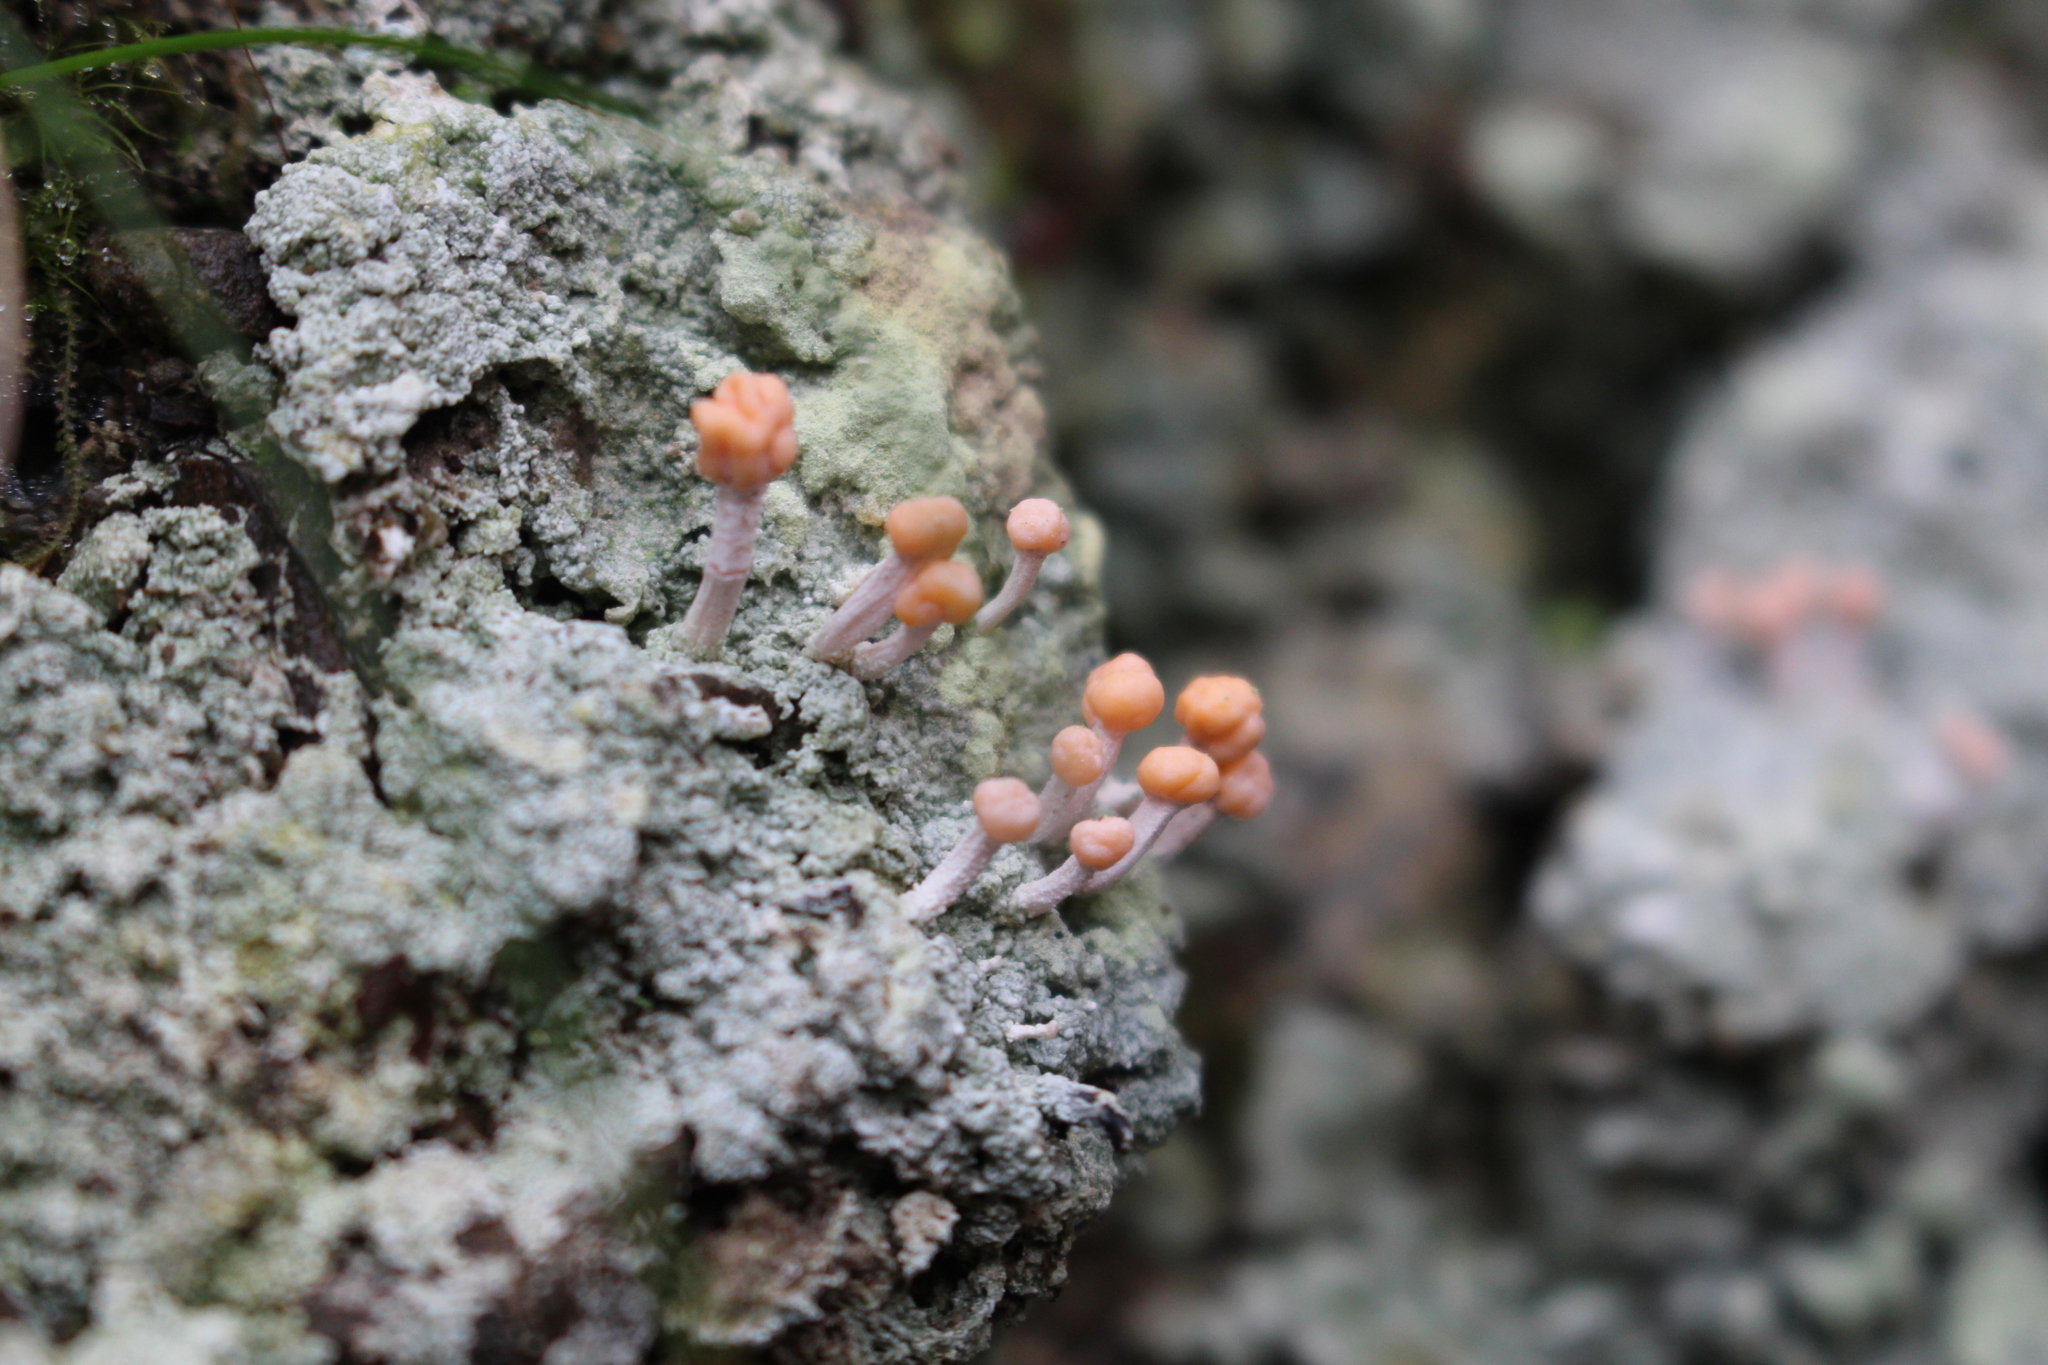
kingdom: Fungi
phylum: Ascomycota
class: Lecanoromycetes
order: Pertusariales
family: Icmadophilaceae
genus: Dibaeis
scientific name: Dibaeis arcuata
